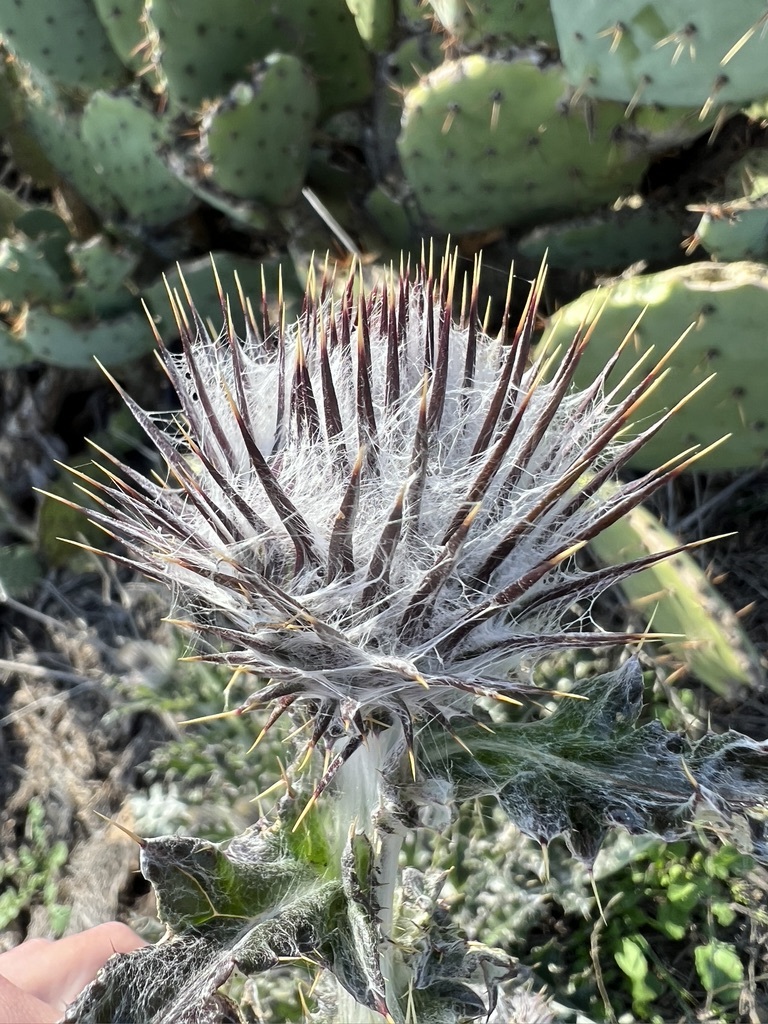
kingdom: Plantae
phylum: Tracheophyta
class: Magnoliopsida
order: Asterales
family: Asteraceae
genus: Cirsium
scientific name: Cirsium occidentale
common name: Western thistle
